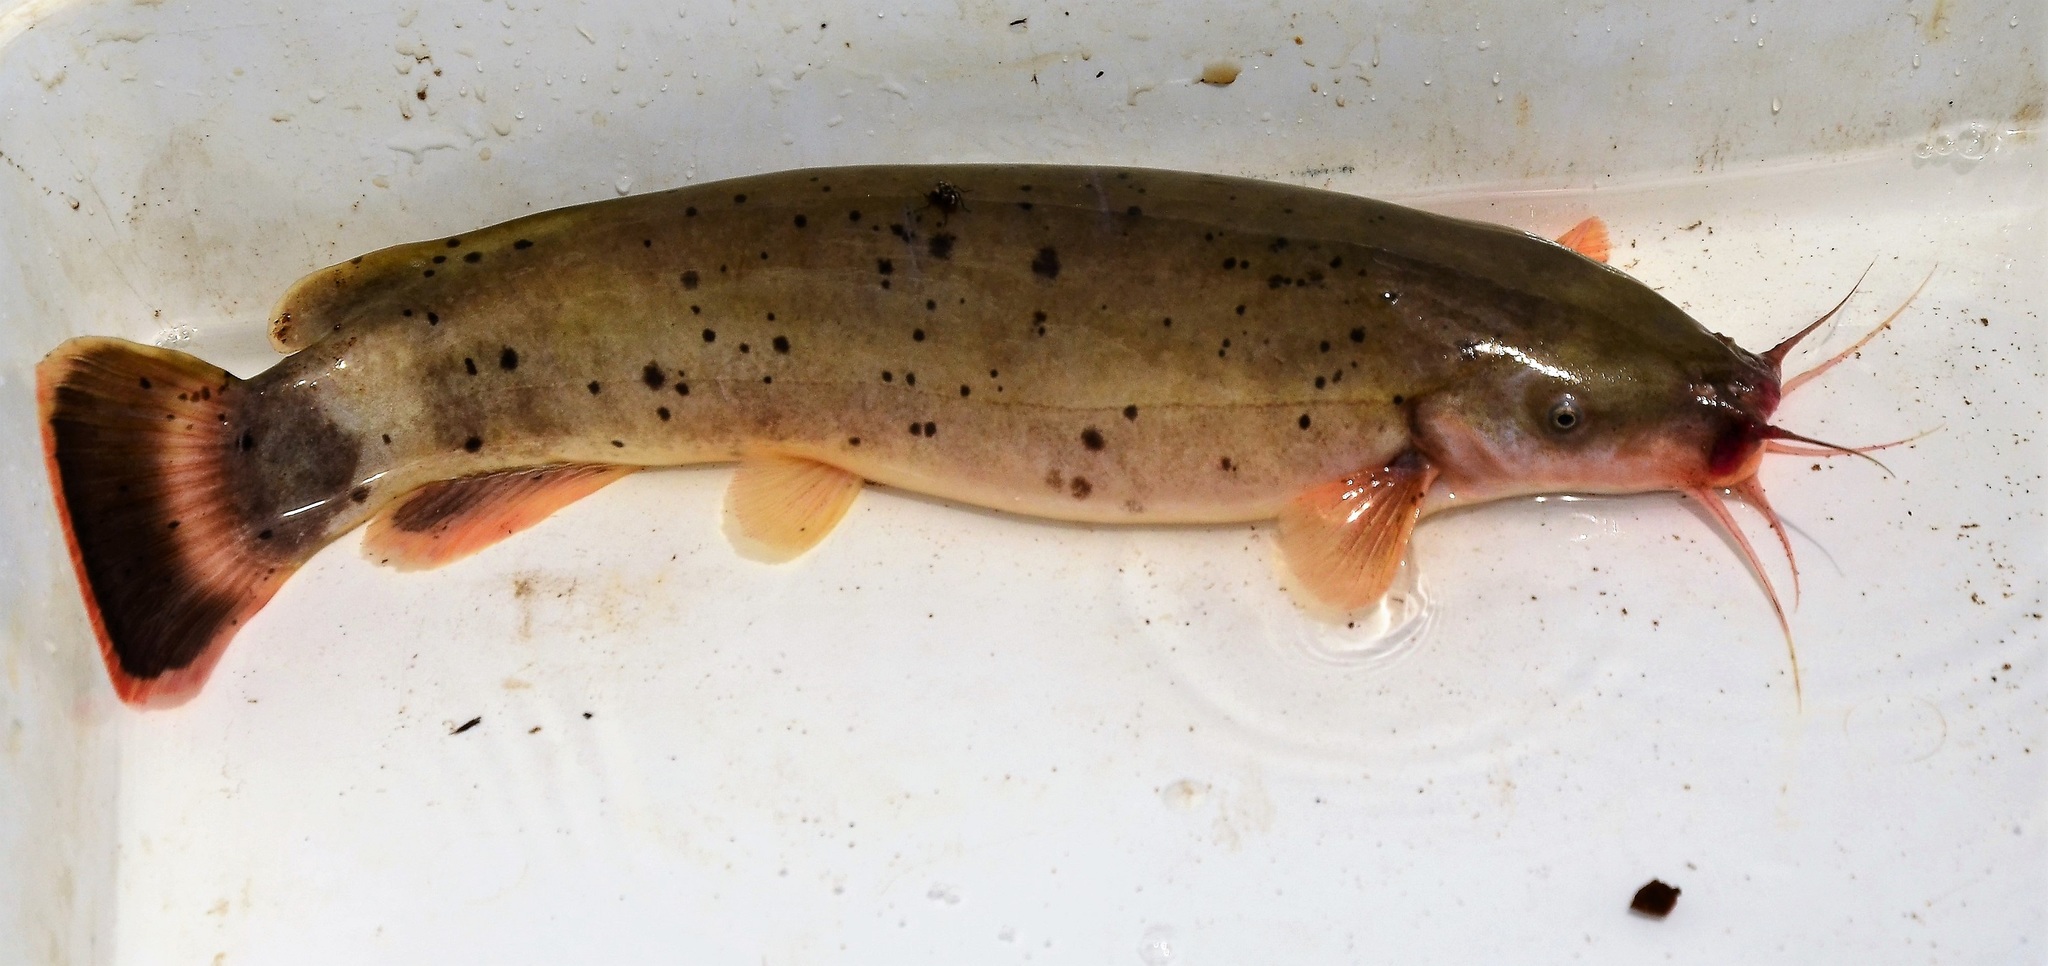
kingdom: Animalia
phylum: Chordata
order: Siluriformes
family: Malapteruridae
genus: Malapterurus
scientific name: Malapterurus shirensis
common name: Electric catfish
